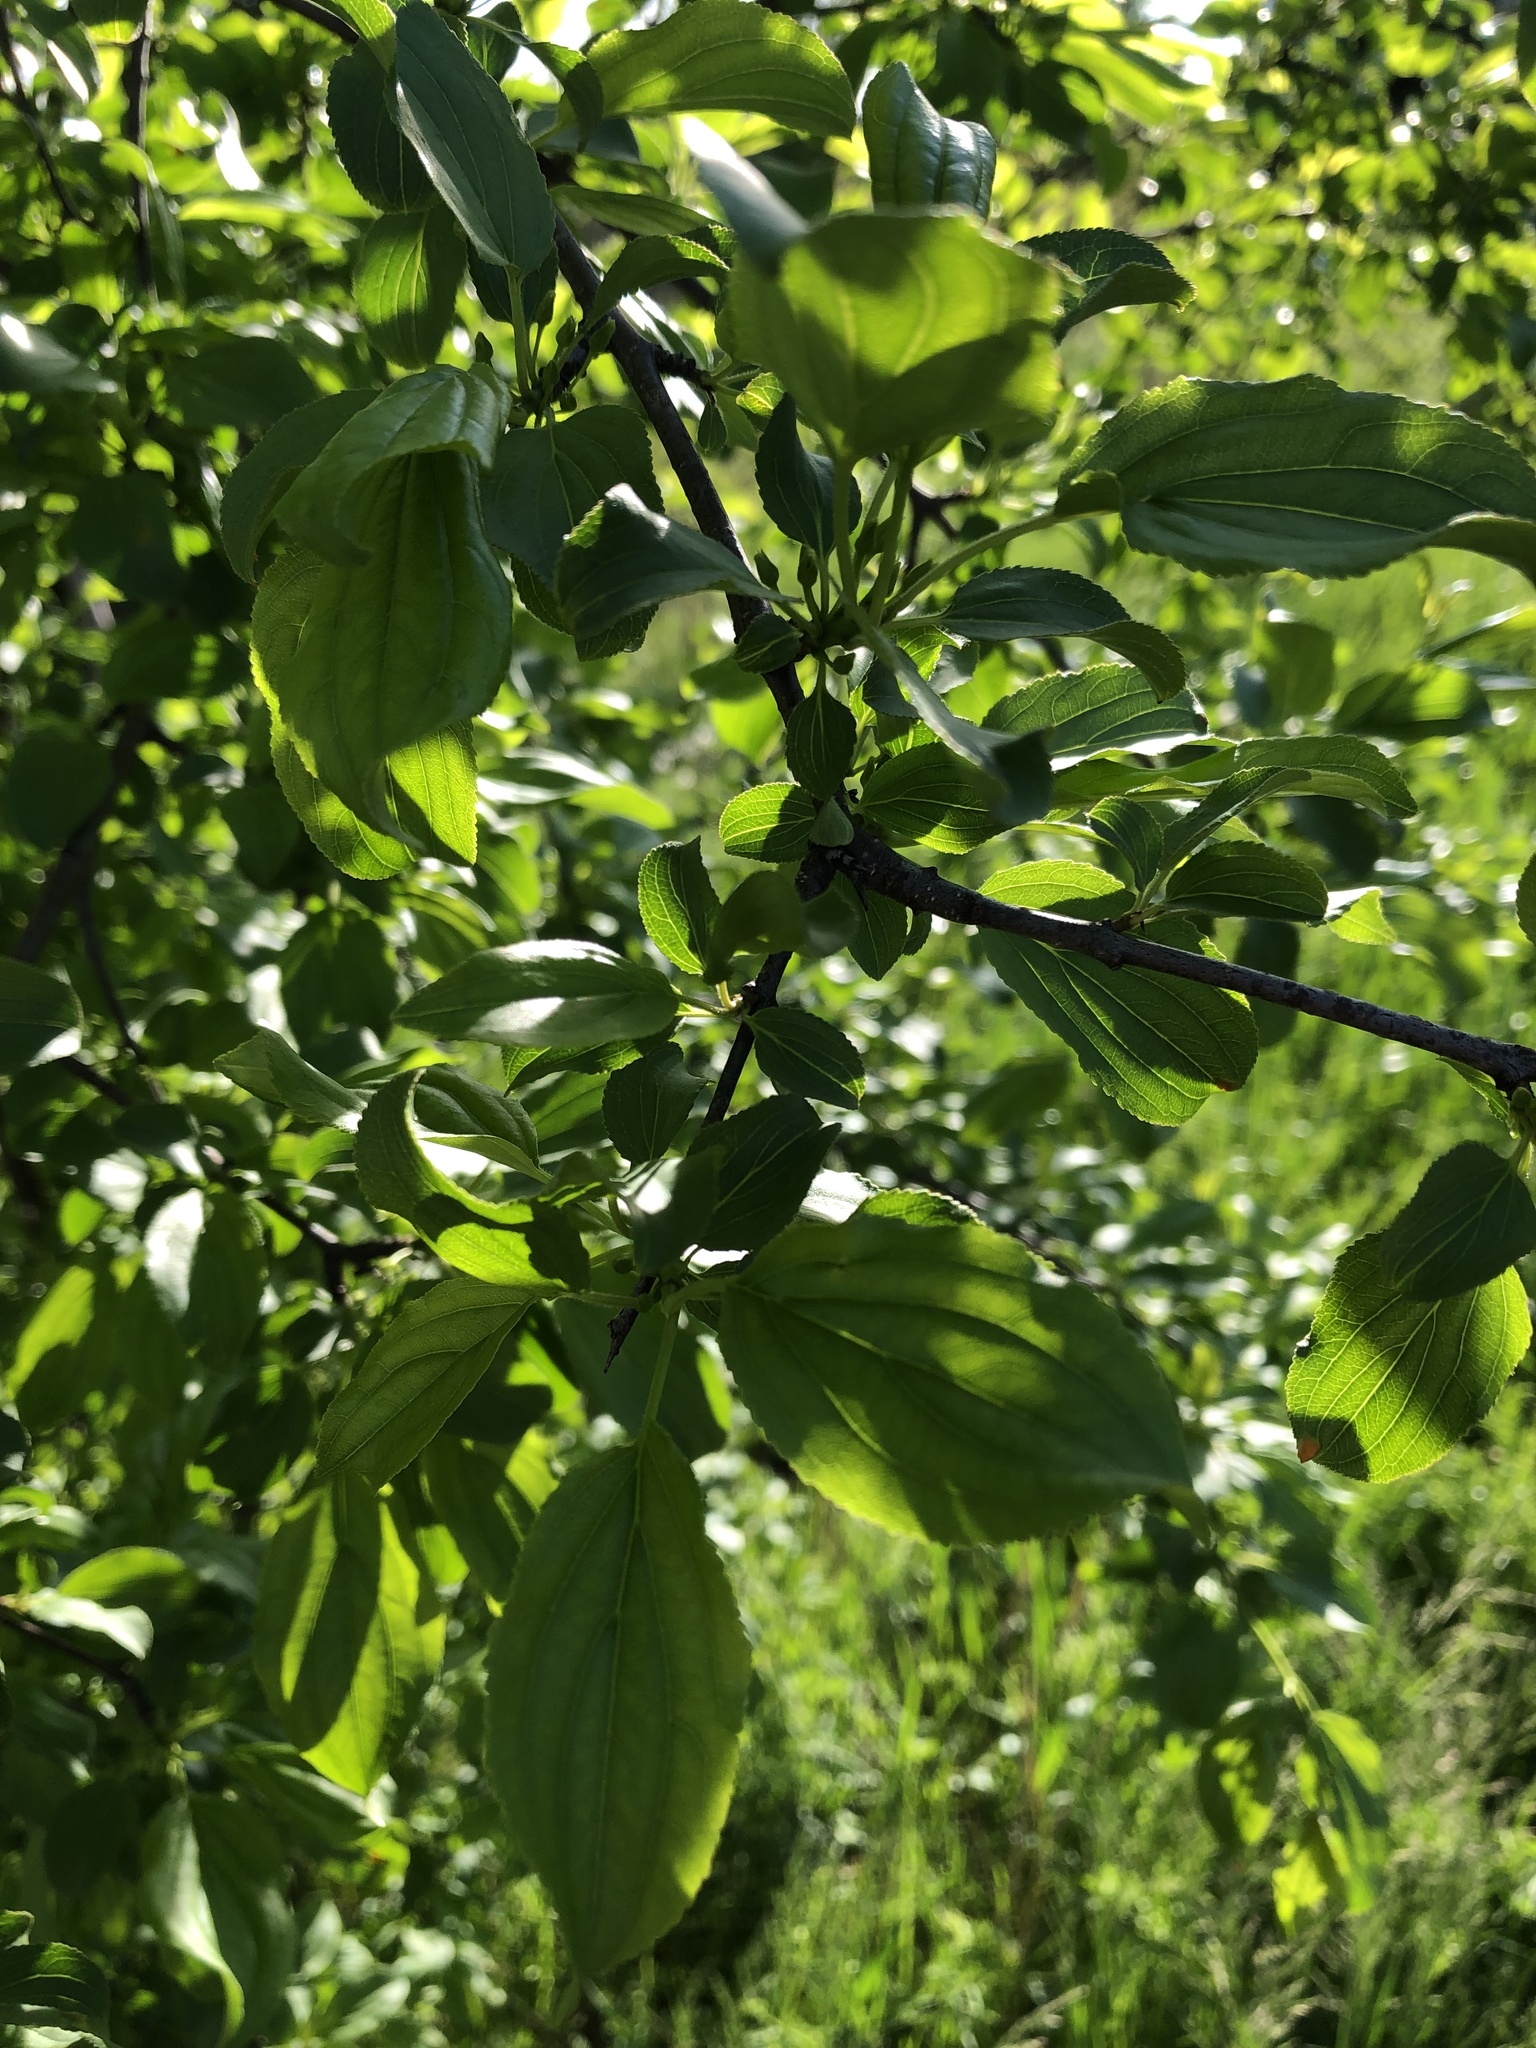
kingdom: Plantae
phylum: Tracheophyta
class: Magnoliopsida
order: Rosales
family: Rhamnaceae
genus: Rhamnus
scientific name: Rhamnus cathartica
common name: Common buckthorn
